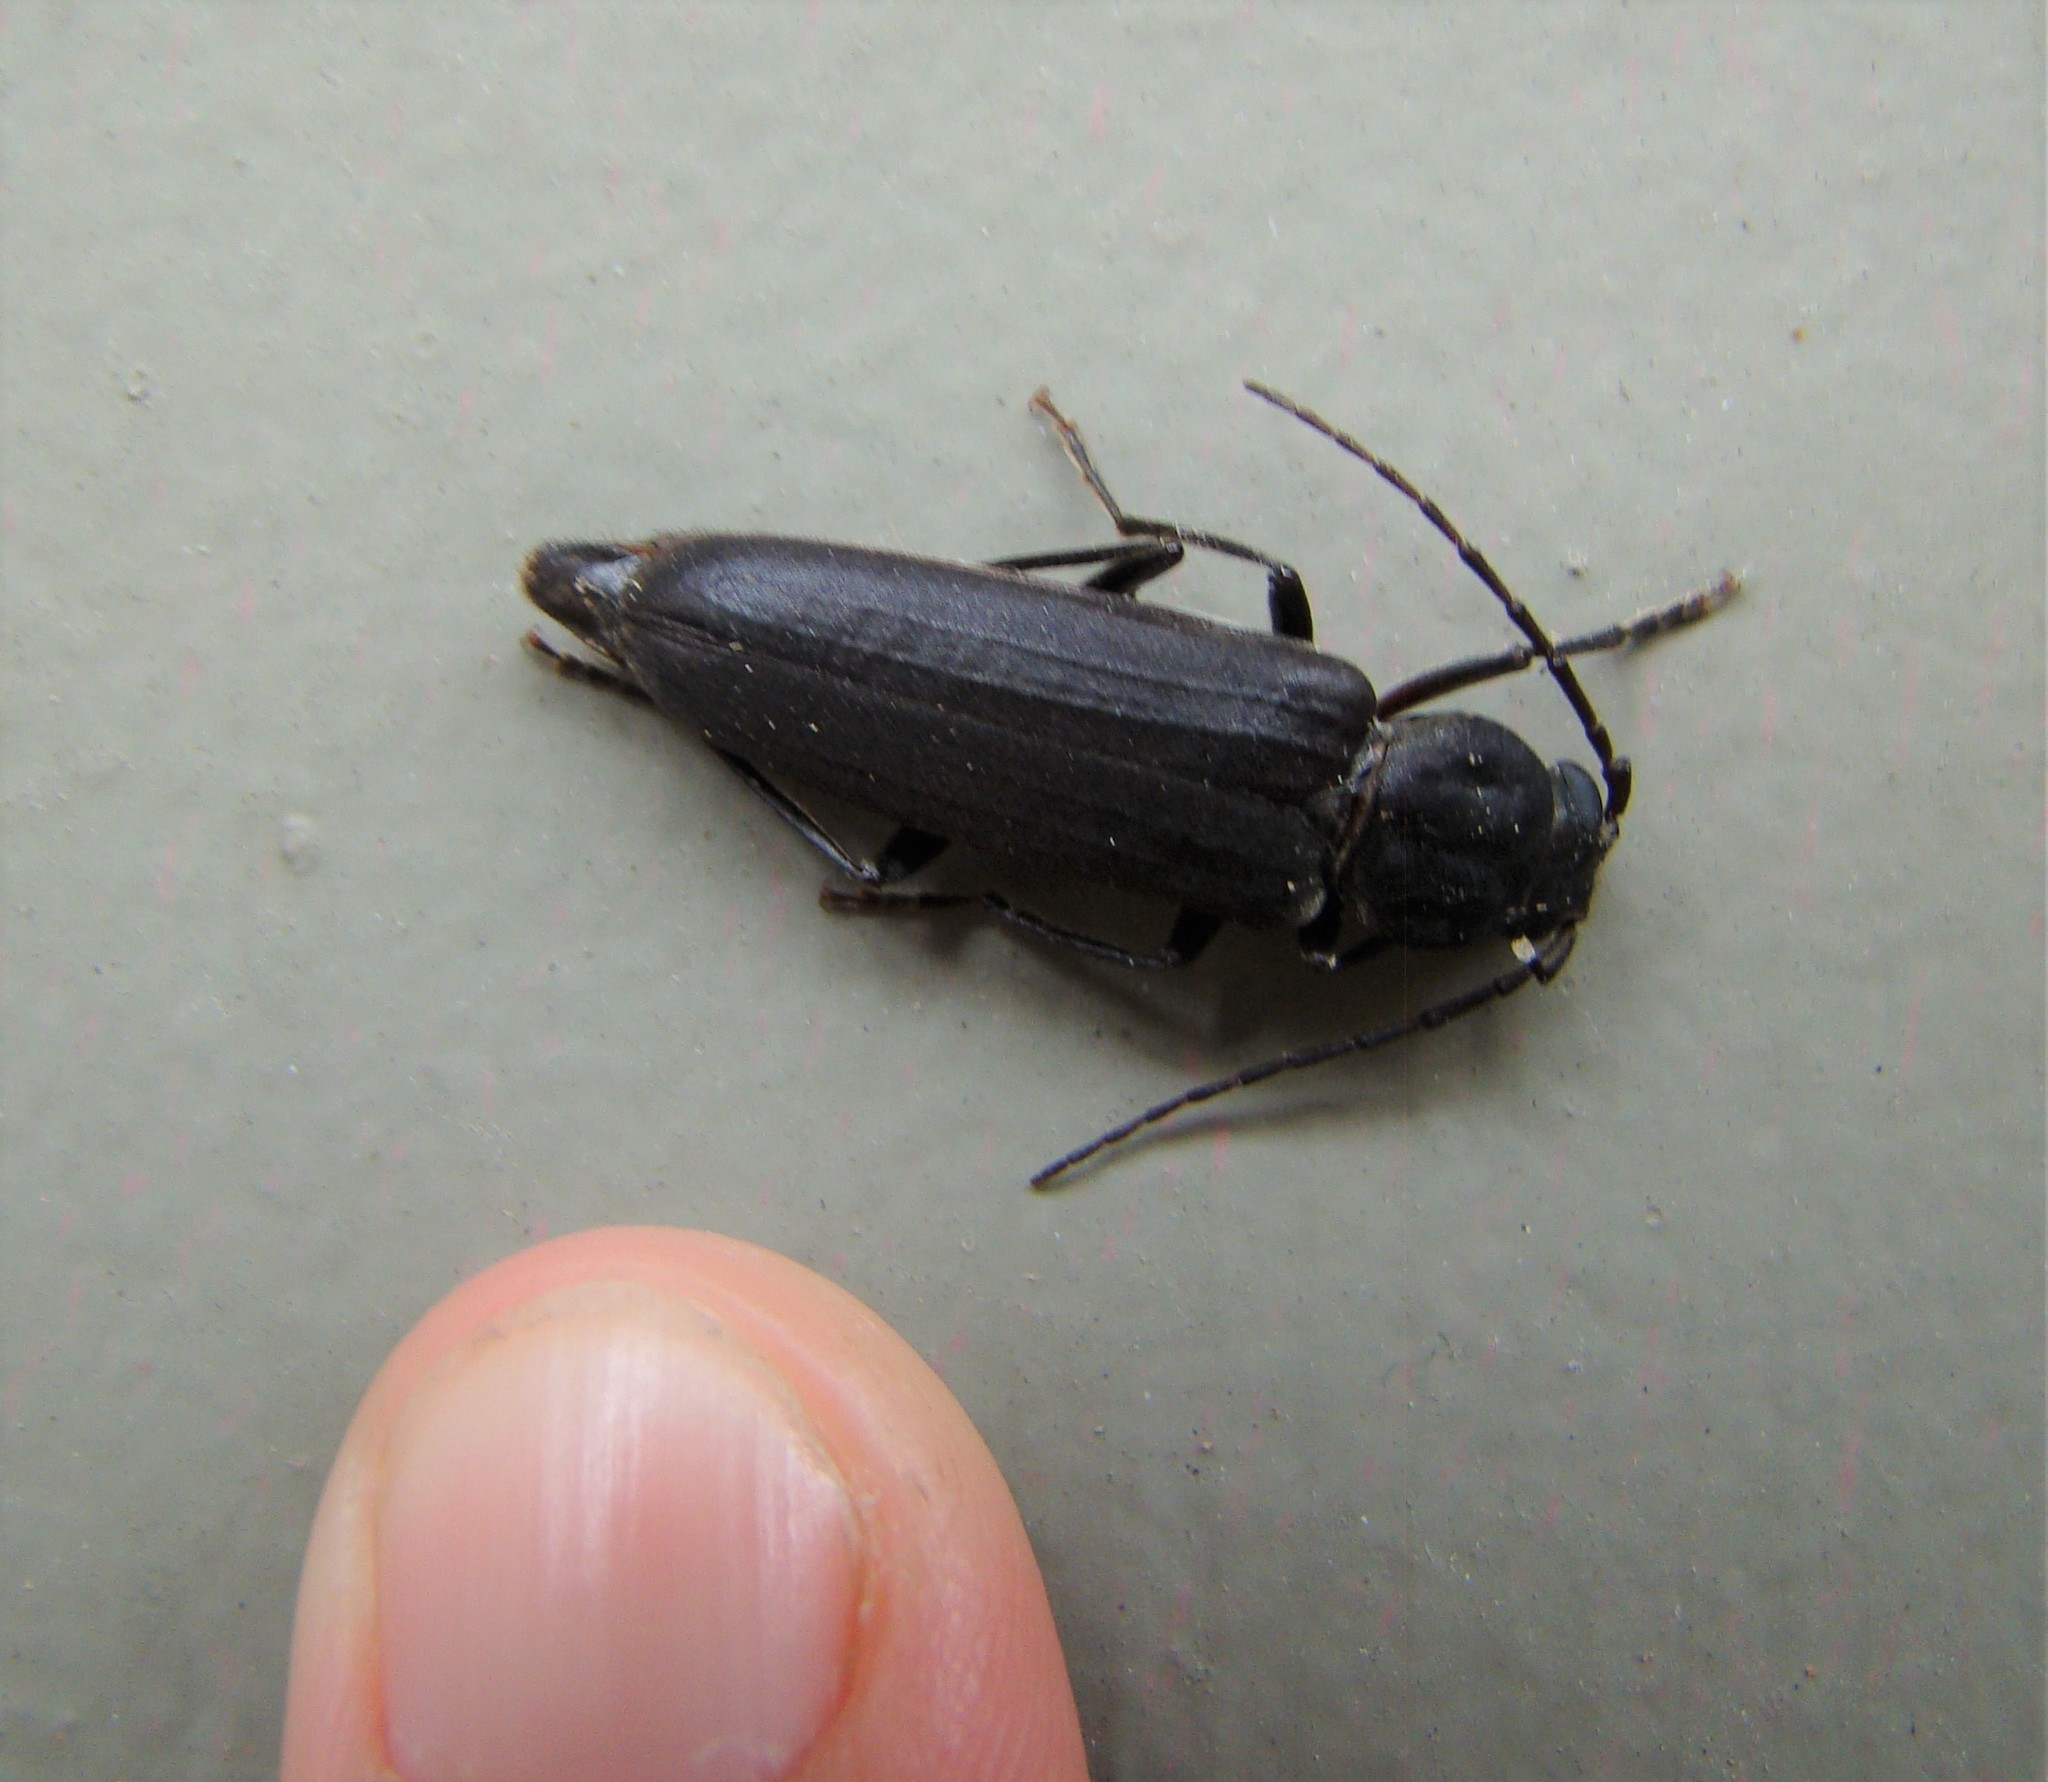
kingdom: Animalia
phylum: Arthropoda
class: Insecta
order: Coleoptera
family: Cerambycidae
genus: Arhopalus
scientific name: Arhopalus ferus
